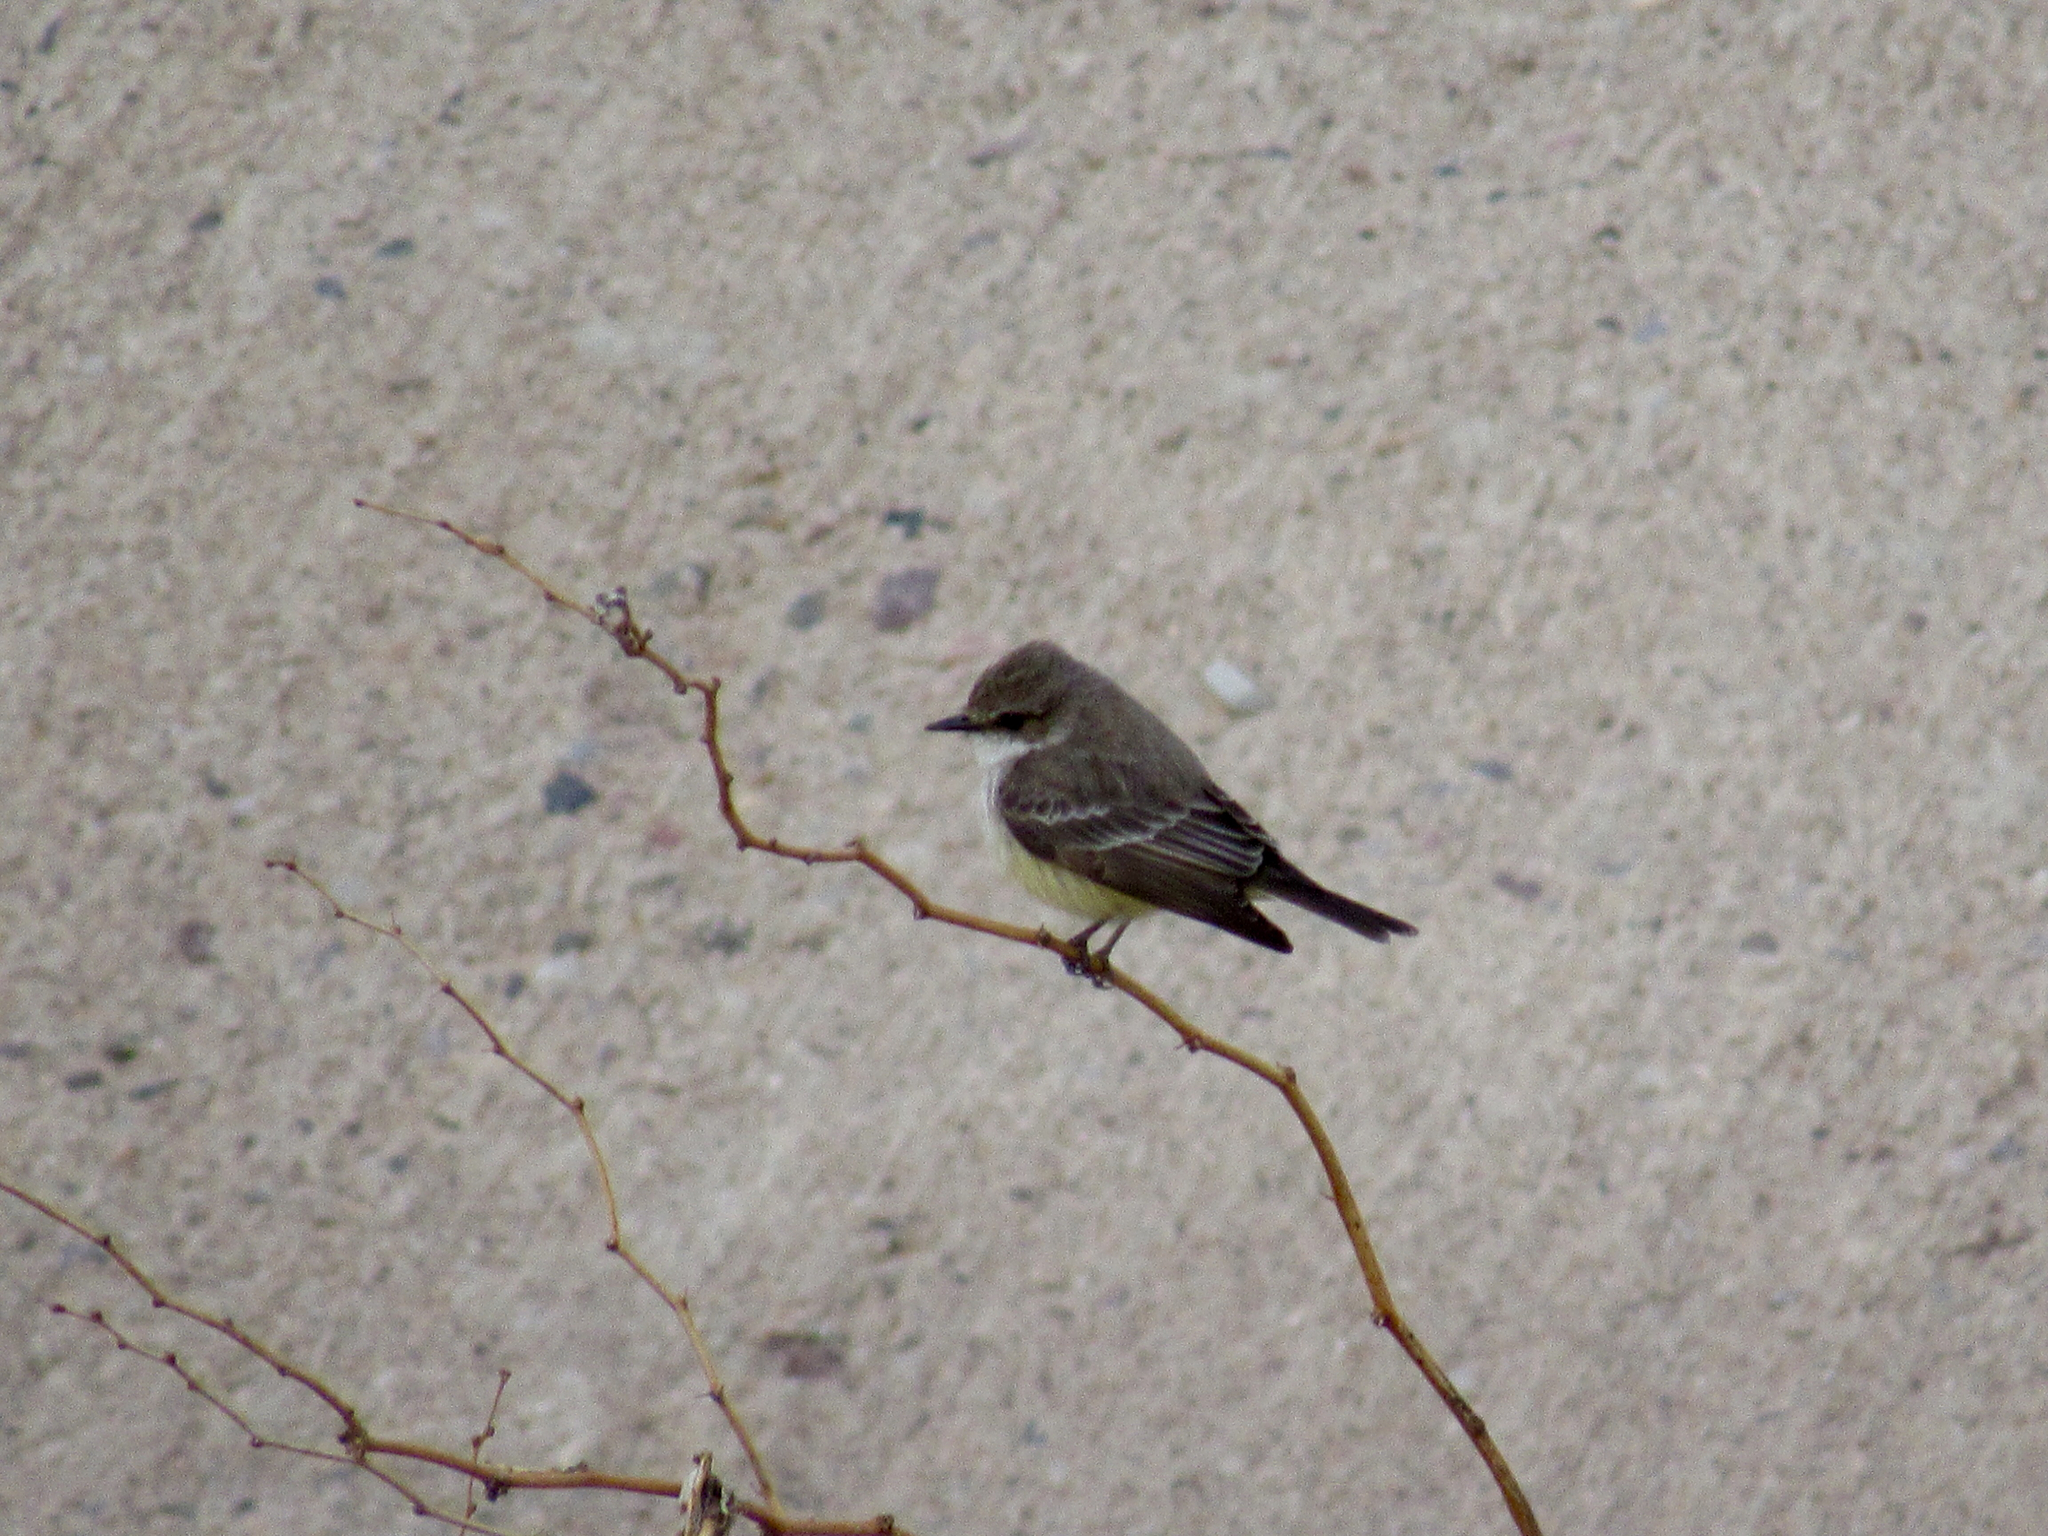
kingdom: Animalia
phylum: Chordata
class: Aves
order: Passeriformes
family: Tyrannidae
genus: Pyrocephalus
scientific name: Pyrocephalus rubinus
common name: Vermilion flycatcher
